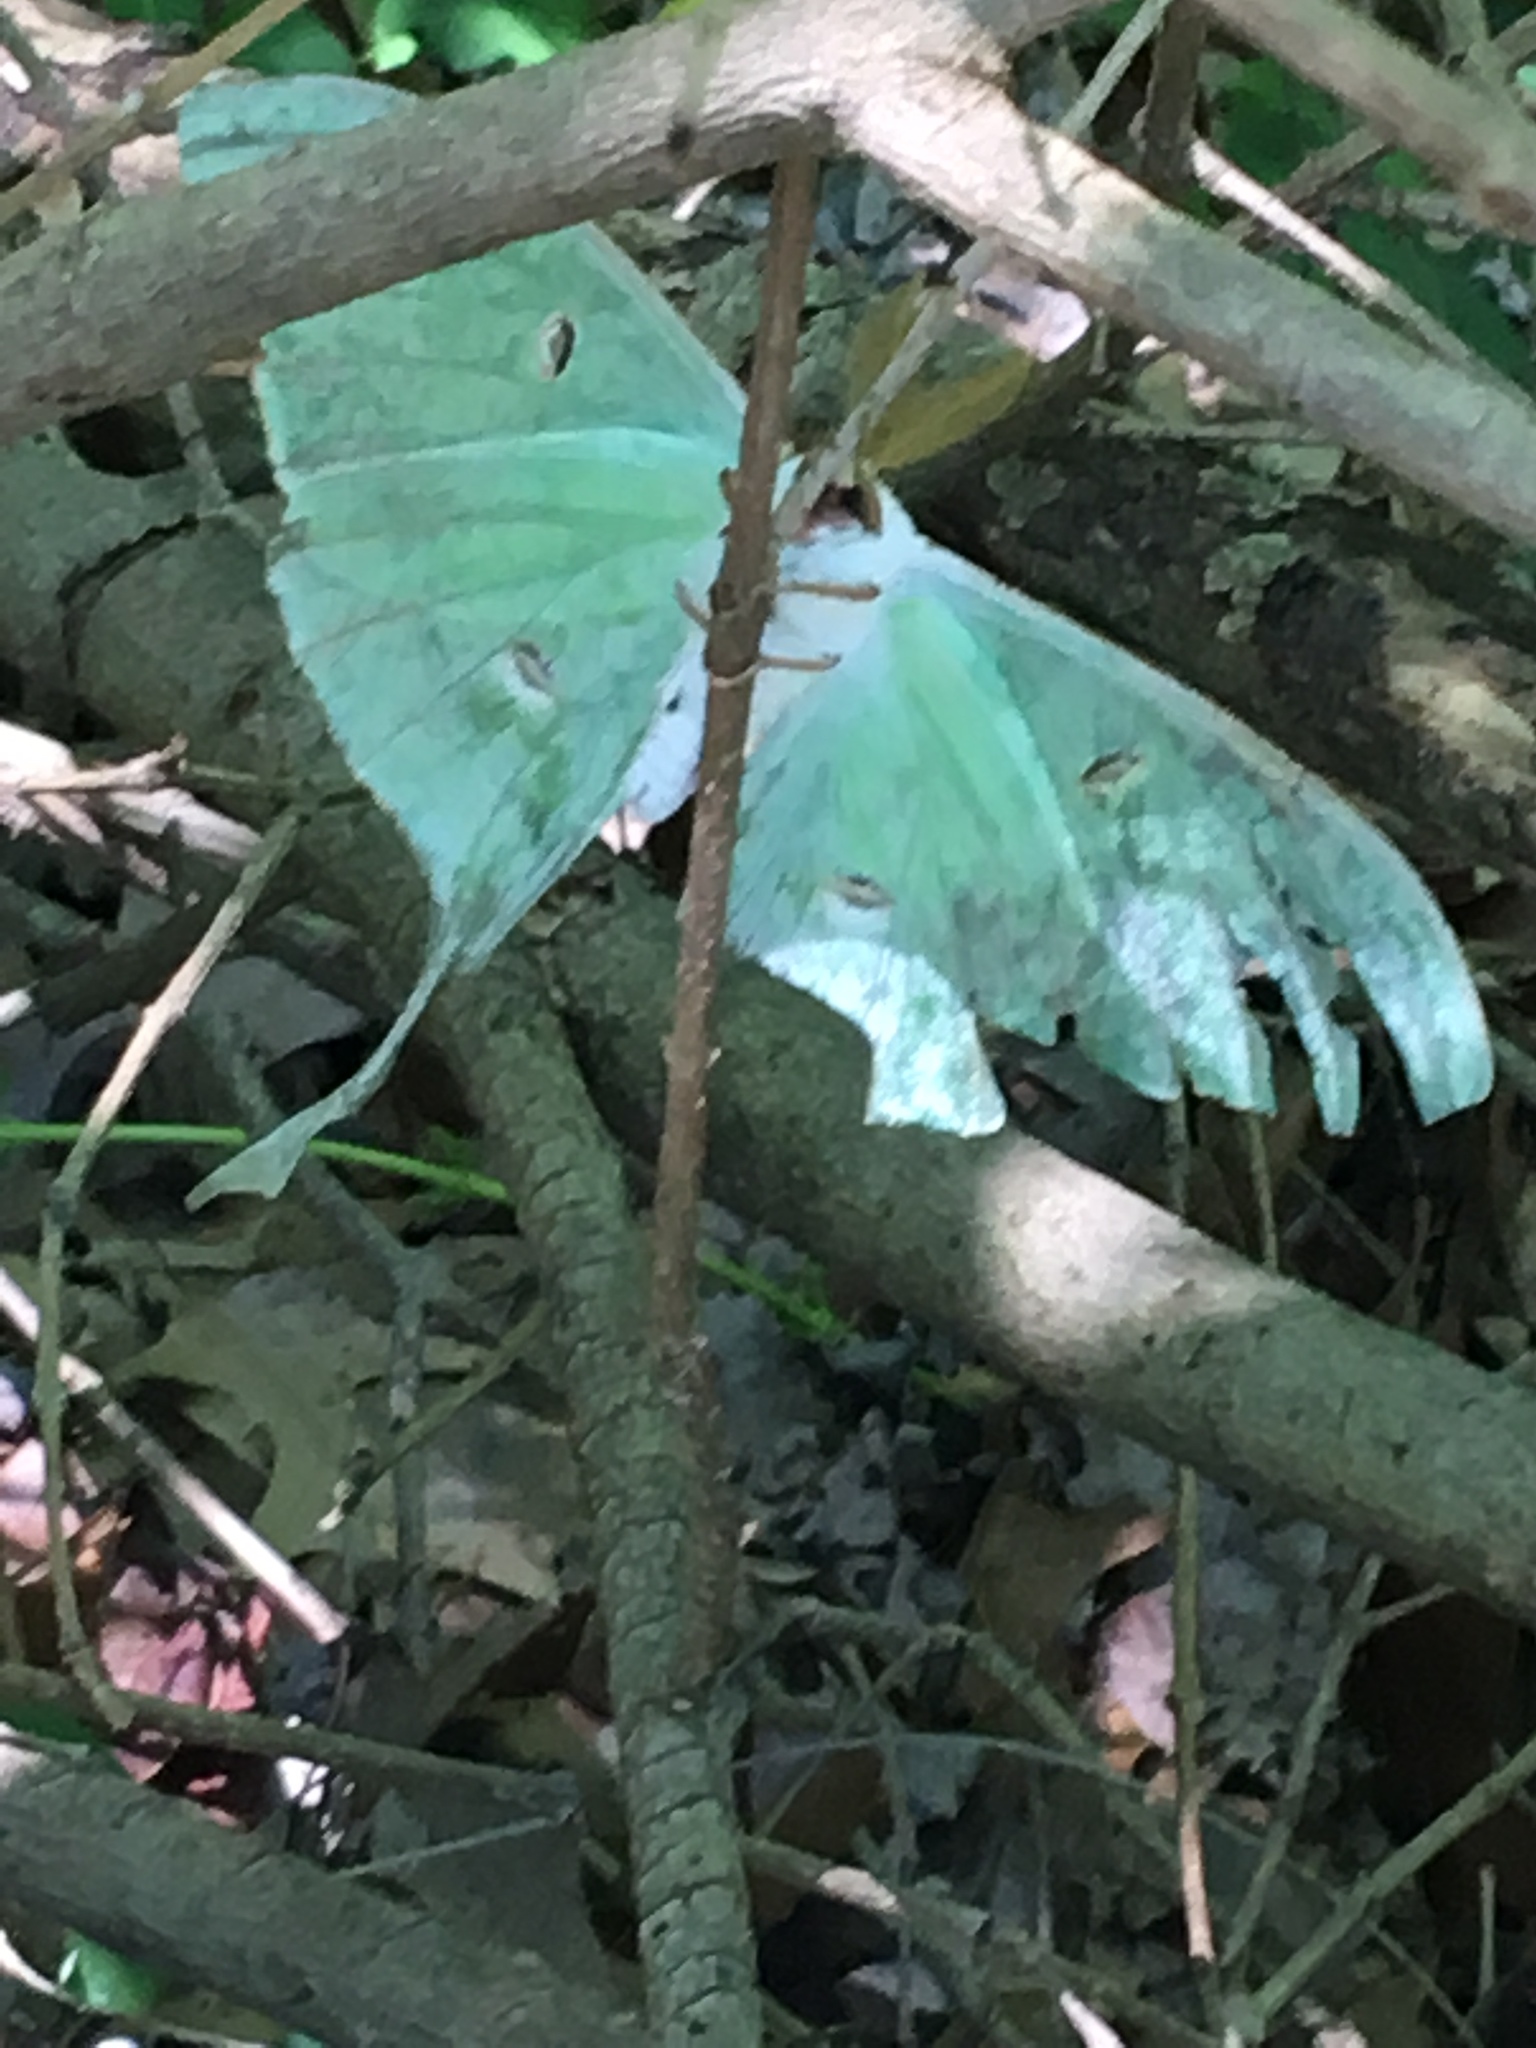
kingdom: Animalia
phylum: Arthropoda
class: Insecta
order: Lepidoptera
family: Saturniidae
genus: Actias
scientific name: Actias luna
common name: Luna moth
